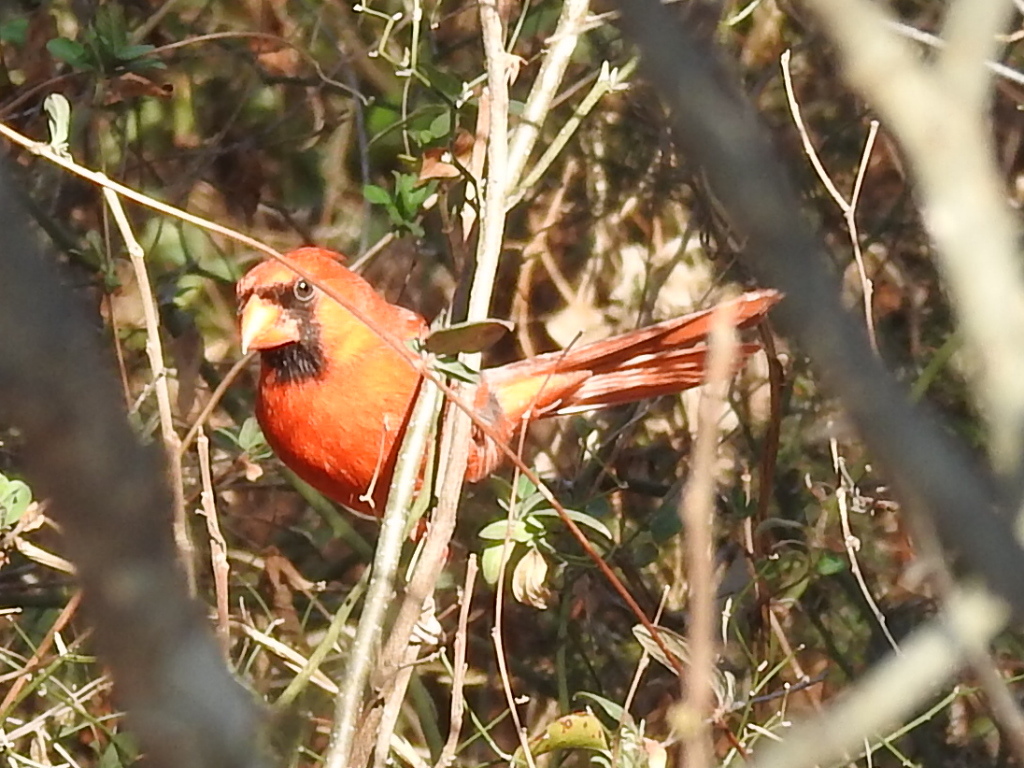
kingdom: Animalia
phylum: Chordata
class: Aves
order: Passeriformes
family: Cardinalidae
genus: Cardinalis
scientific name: Cardinalis cardinalis
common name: Northern cardinal
